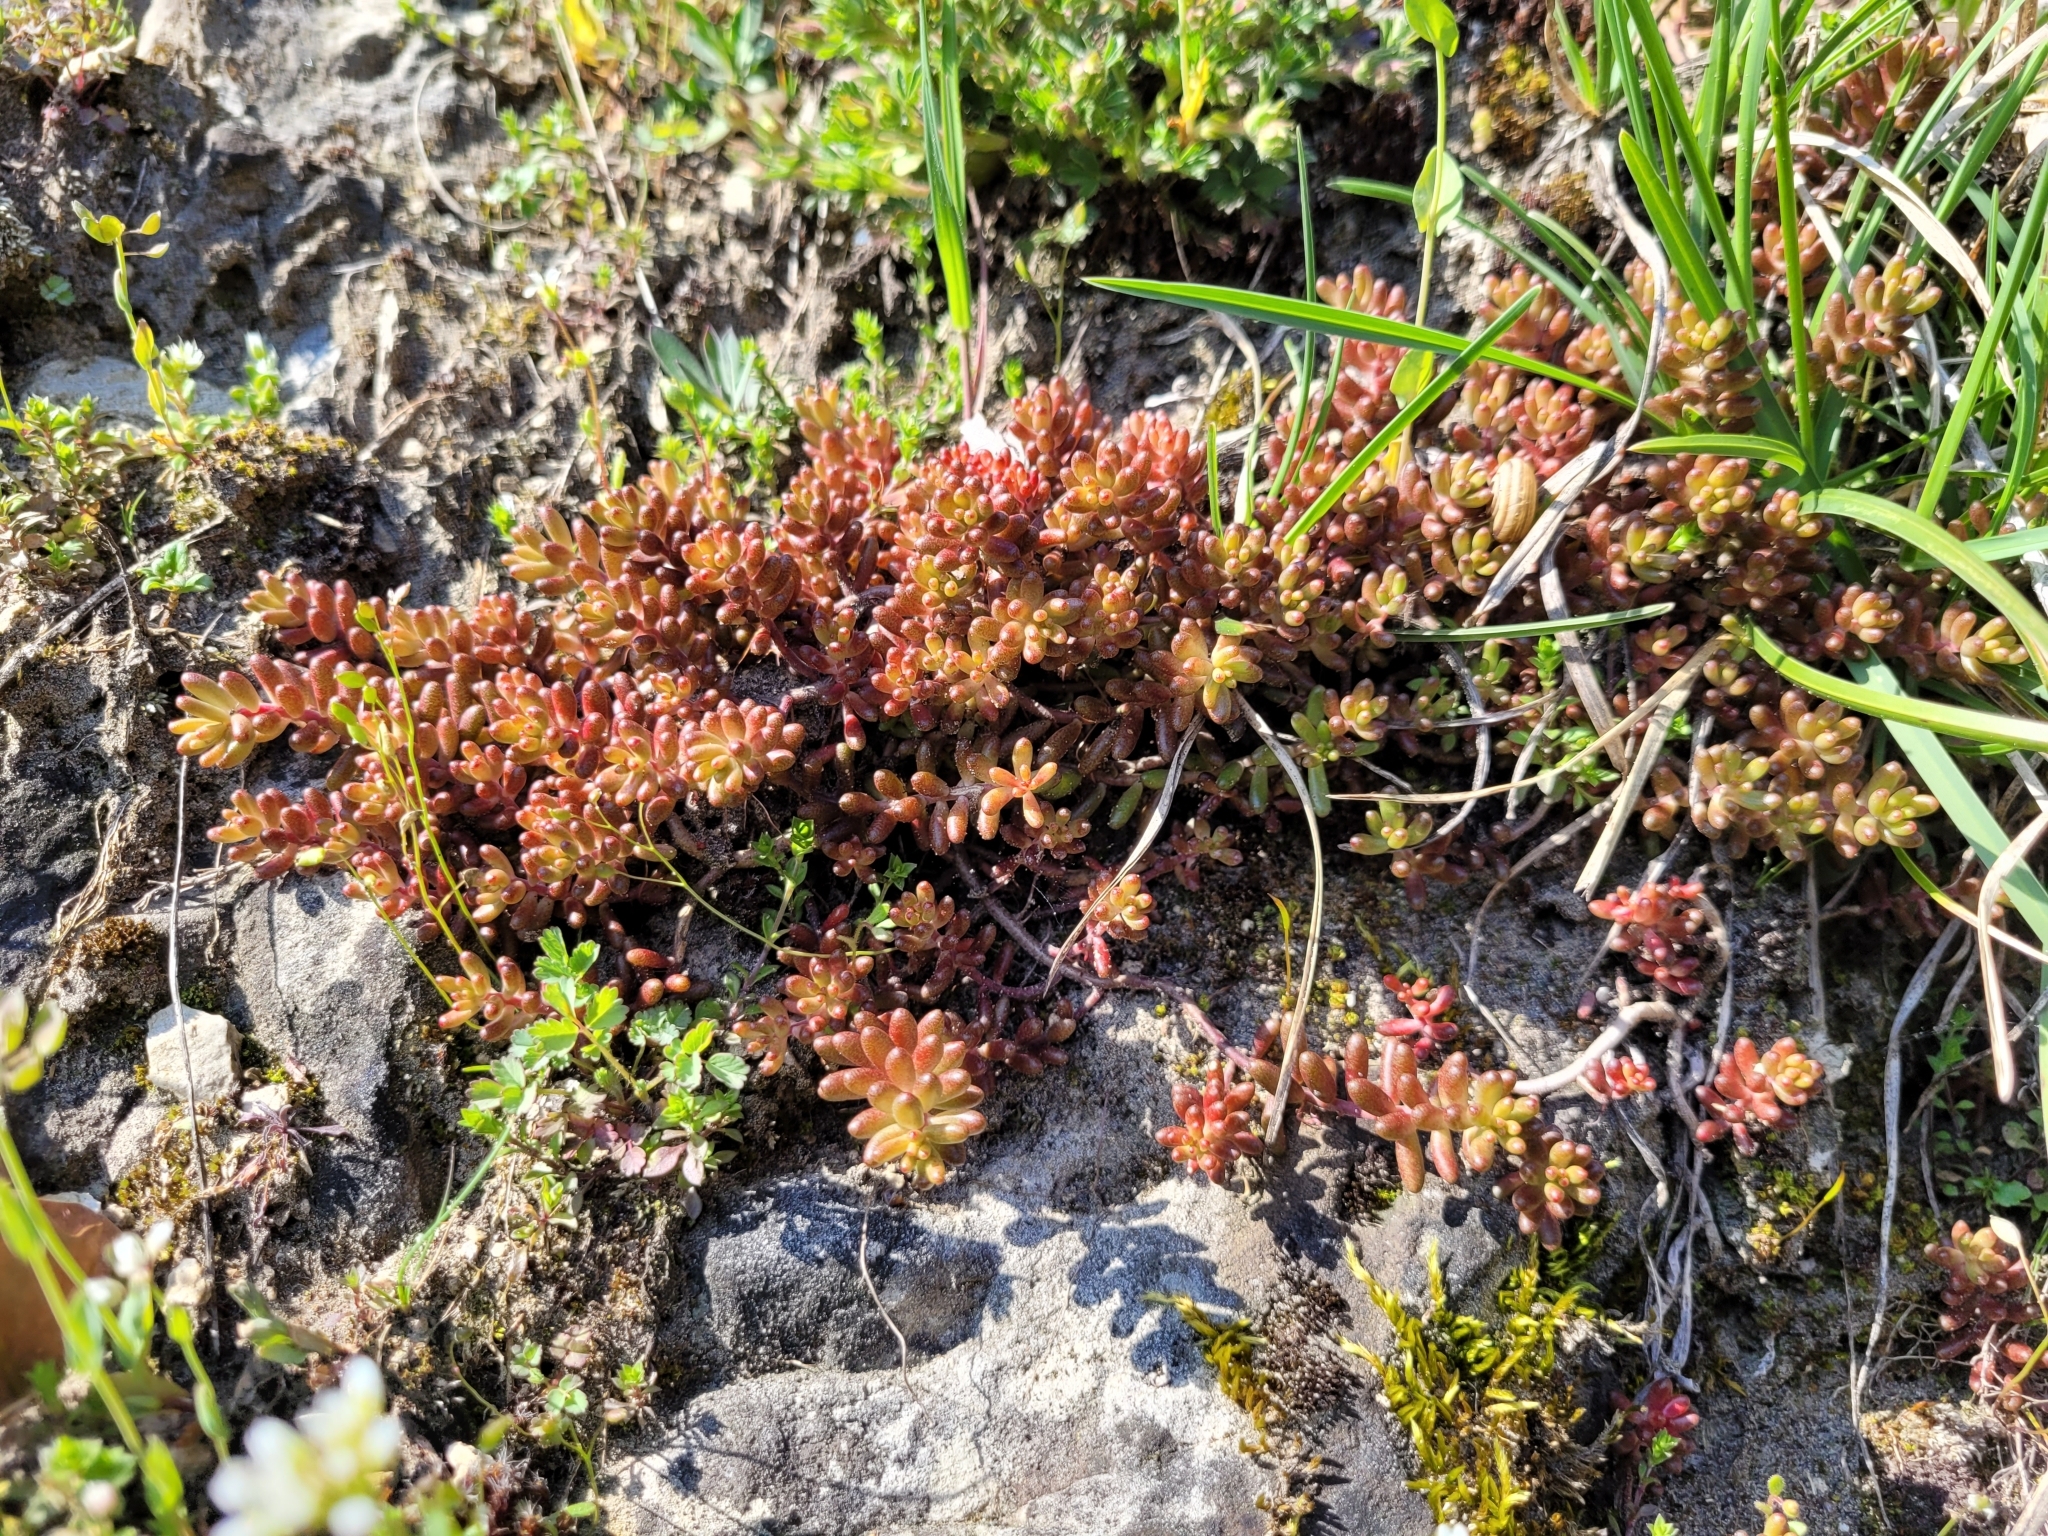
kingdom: Plantae
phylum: Tracheophyta
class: Magnoliopsida
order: Saxifragales
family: Crassulaceae
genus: Sedum
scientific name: Sedum album
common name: White stonecrop
